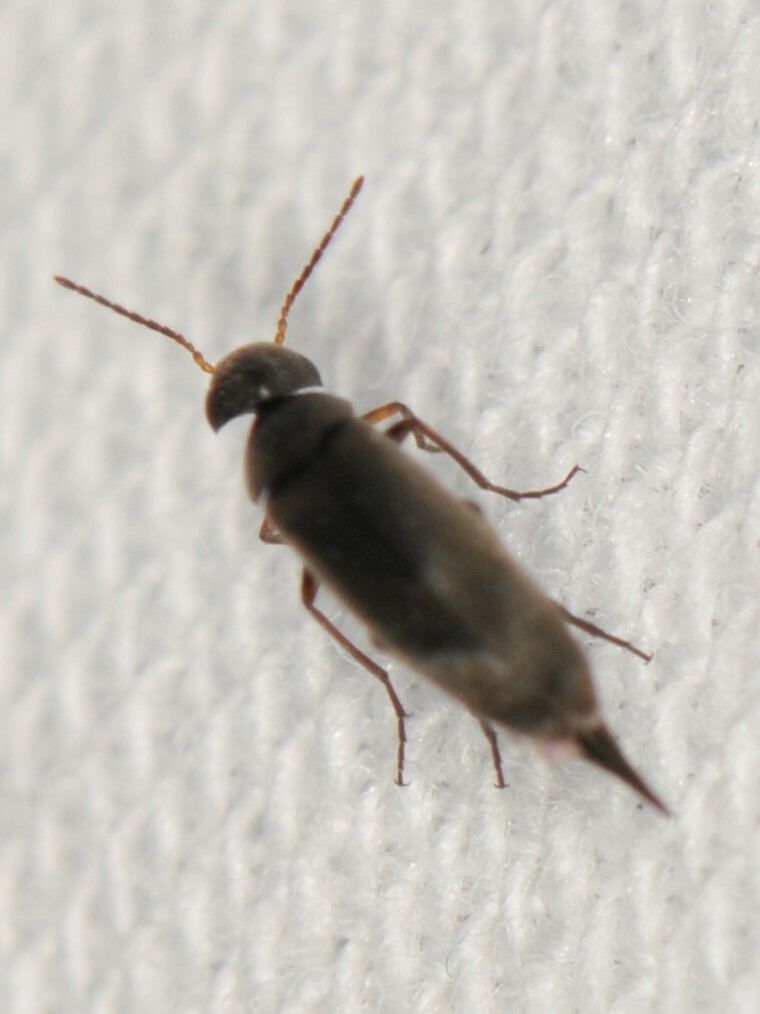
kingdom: Animalia
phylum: Arthropoda
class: Insecta
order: Coleoptera
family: Mordellidae
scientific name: Mordellidae
